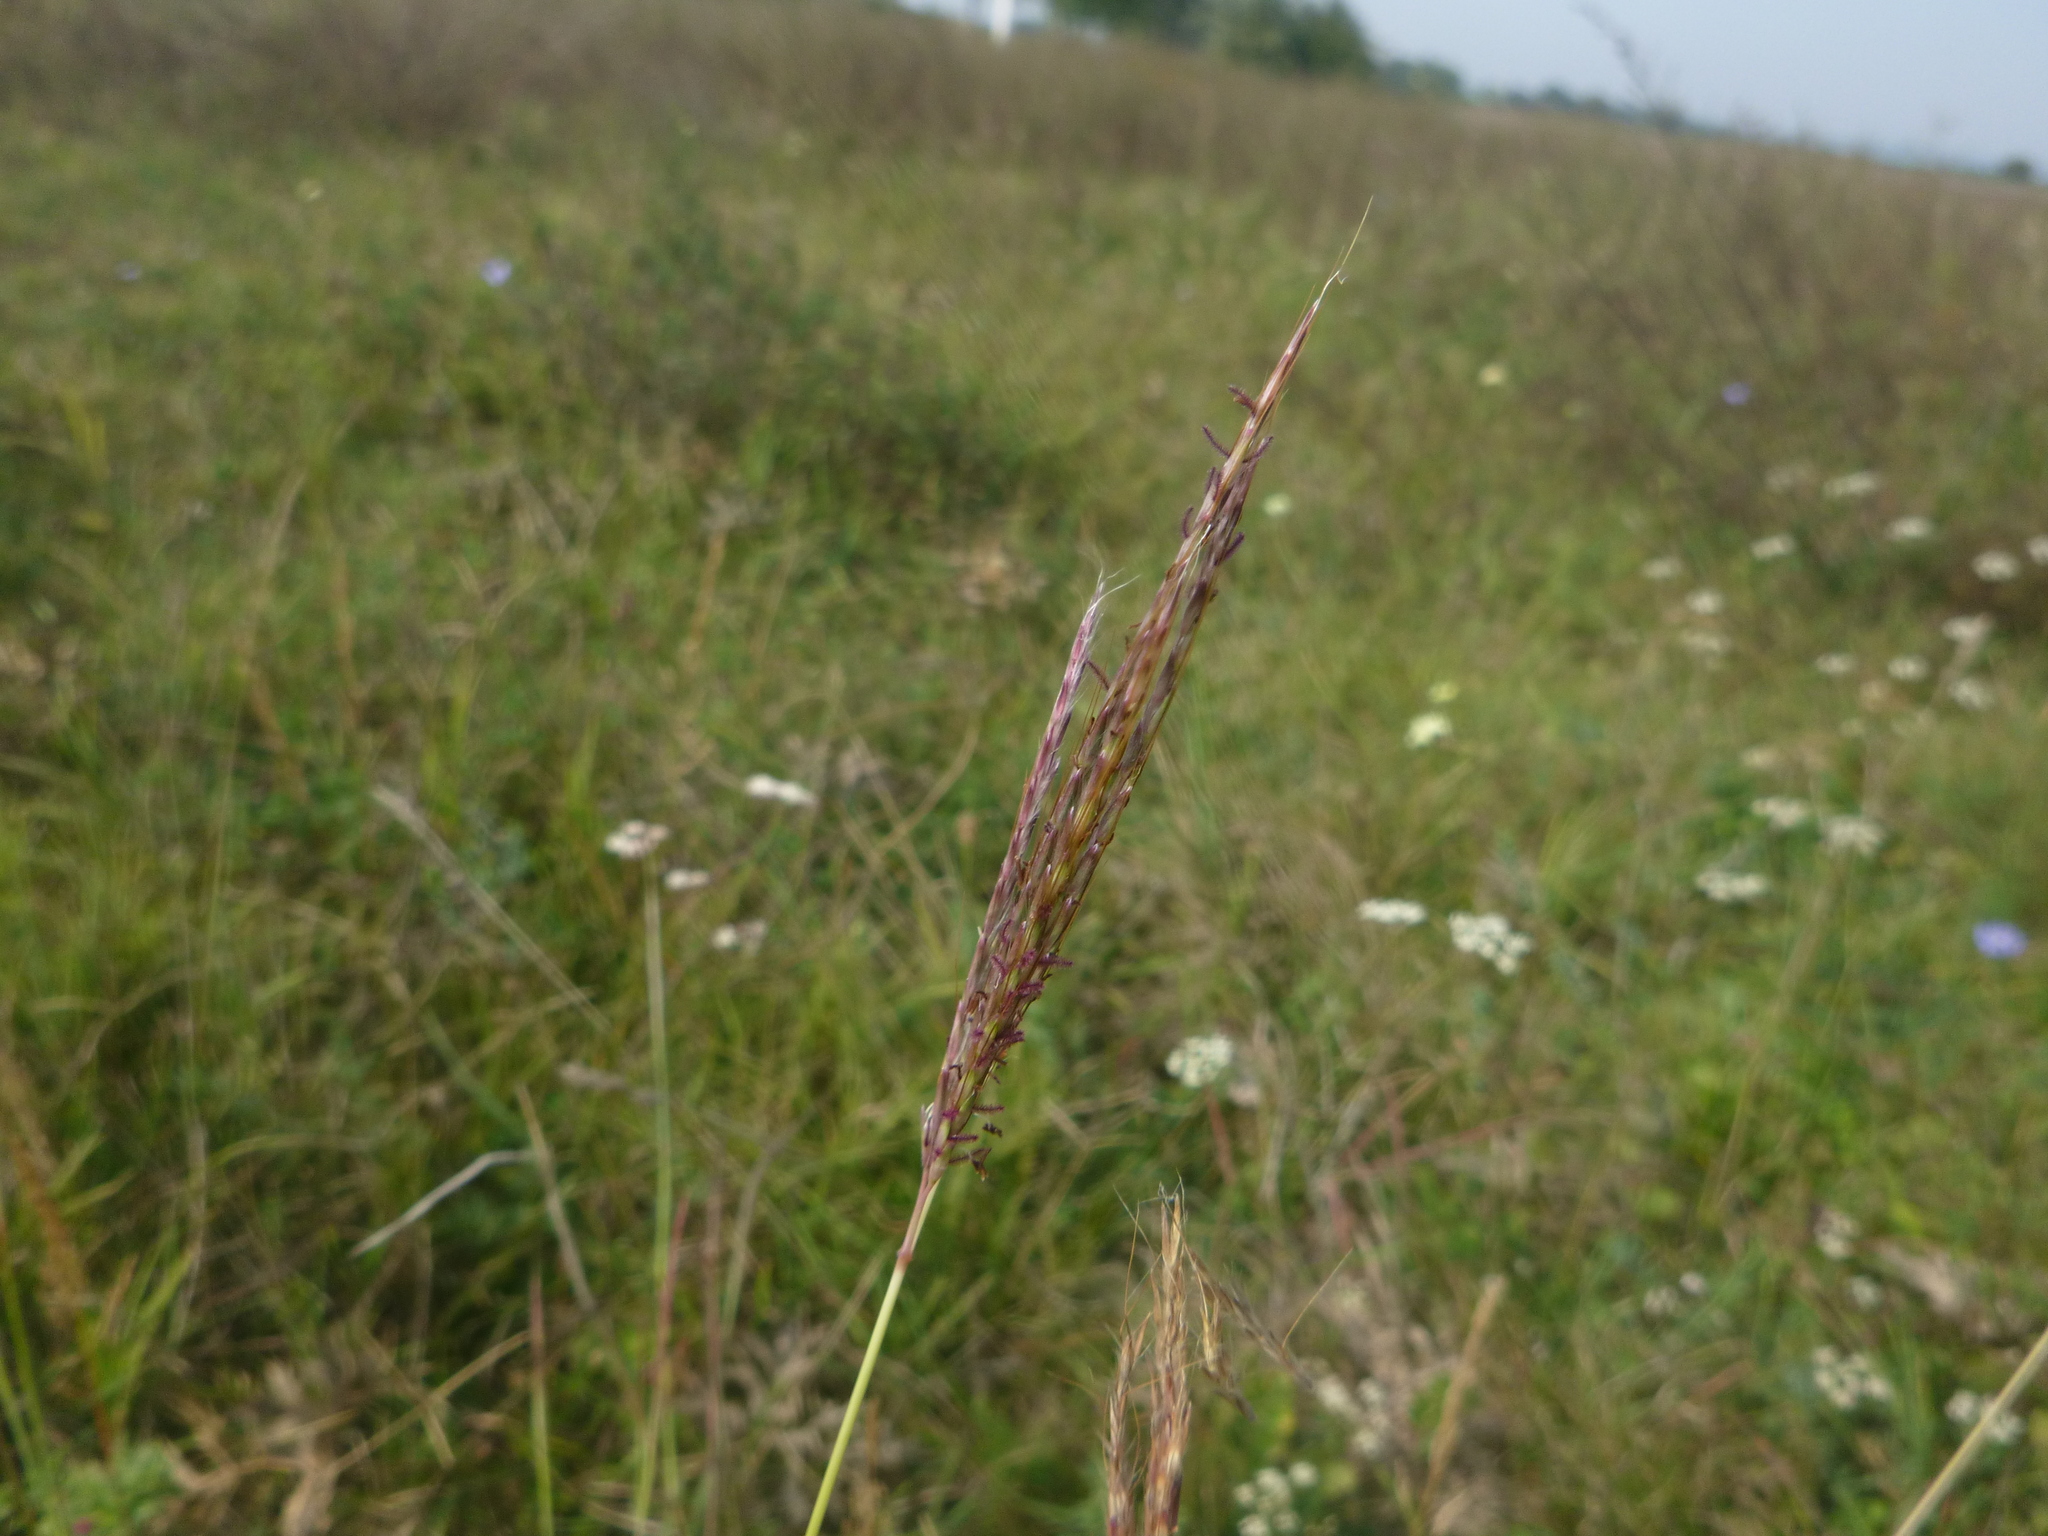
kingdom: Plantae
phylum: Tracheophyta
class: Liliopsida
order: Poales
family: Poaceae
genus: Bothriochloa
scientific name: Bothriochloa ischaemum
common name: Yellow bluestem
